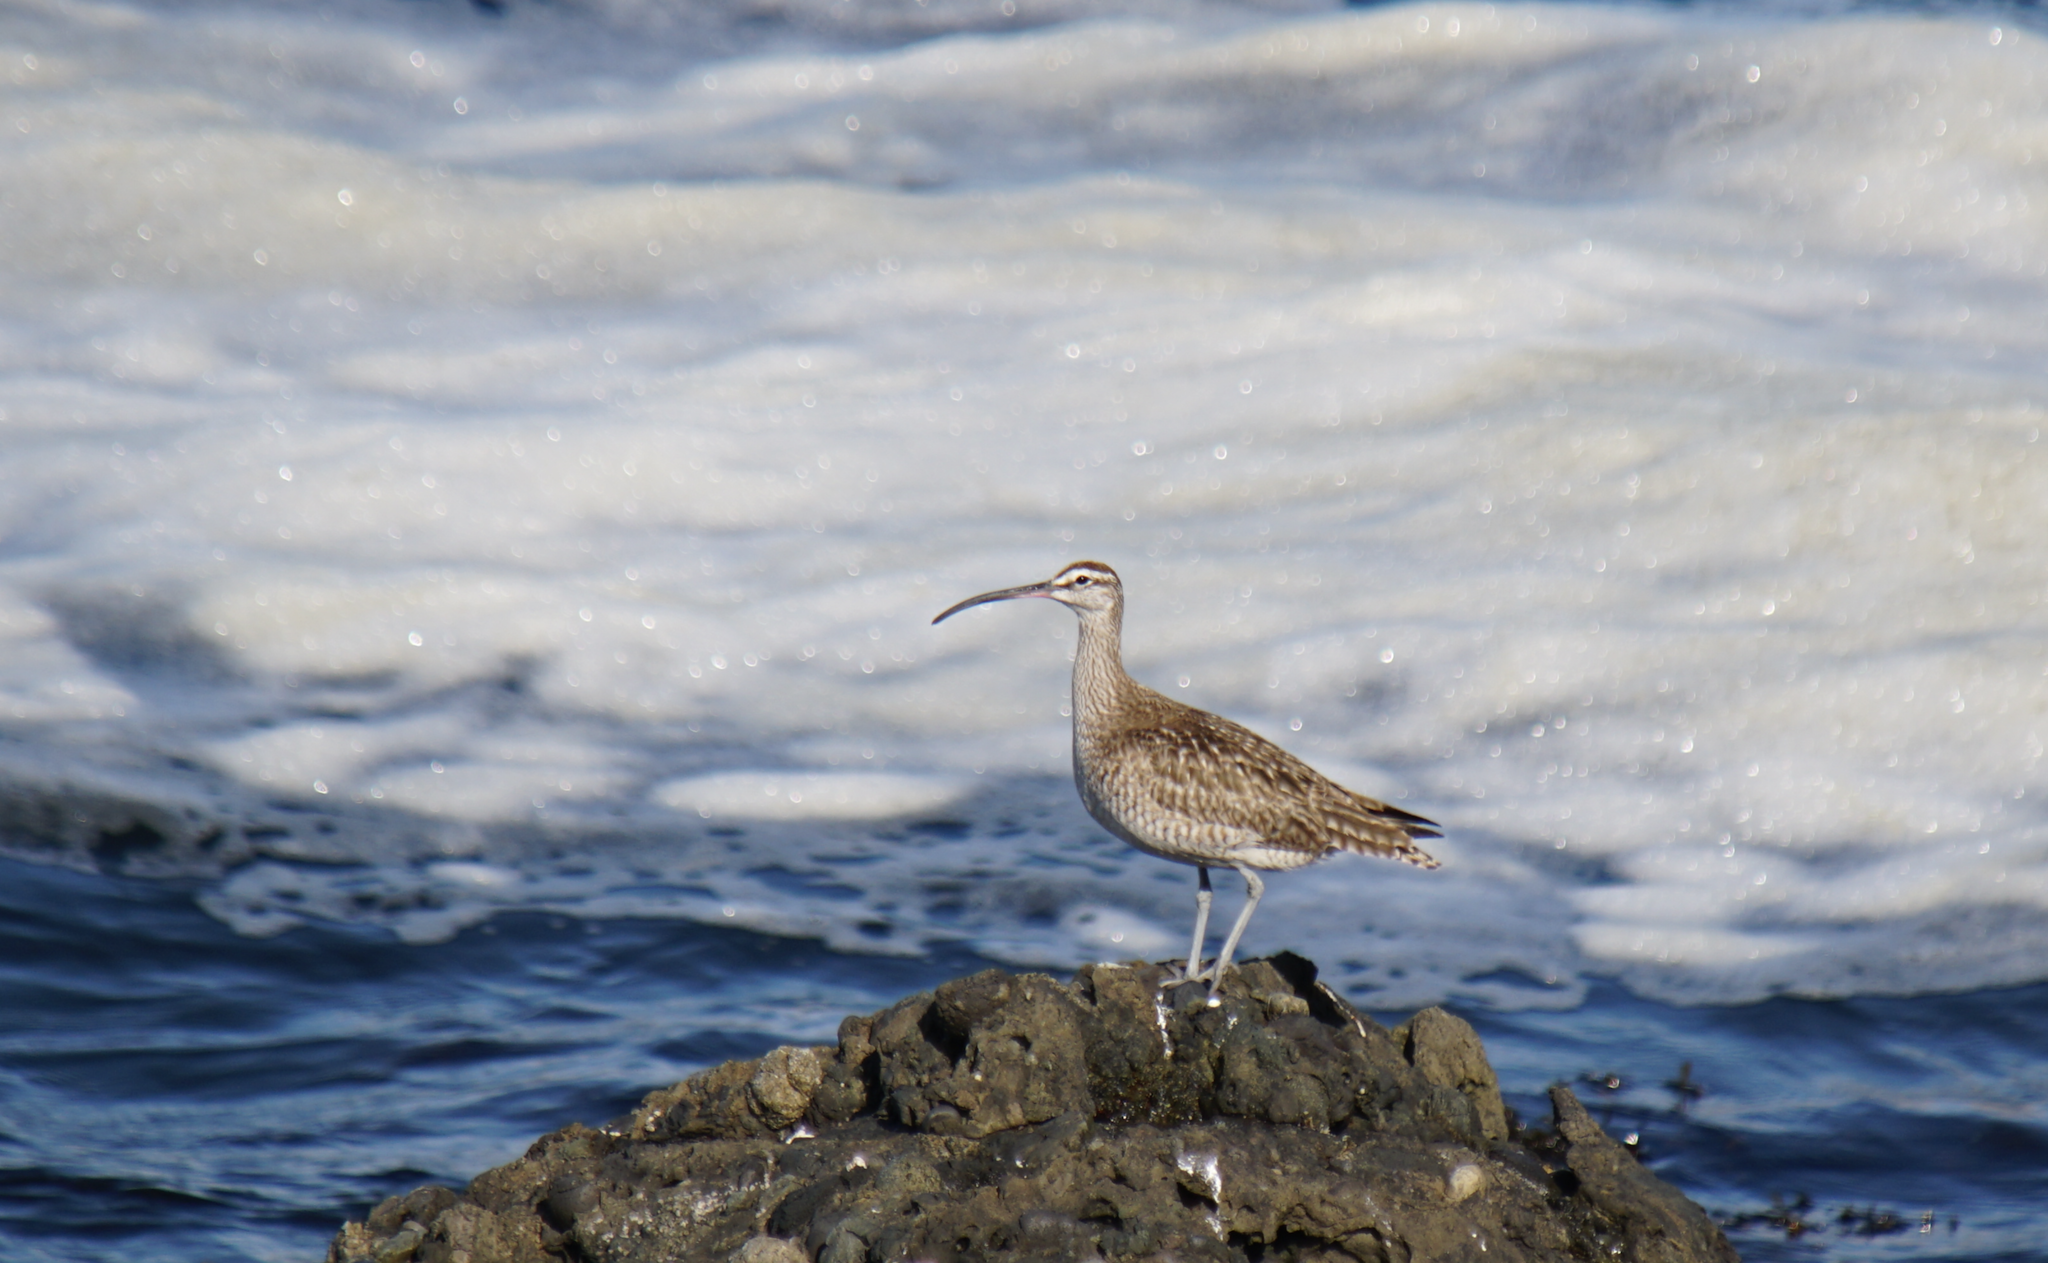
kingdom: Animalia
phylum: Chordata
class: Aves
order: Charadriiformes
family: Scolopacidae
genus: Numenius
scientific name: Numenius phaeopus
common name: Whimbrel
